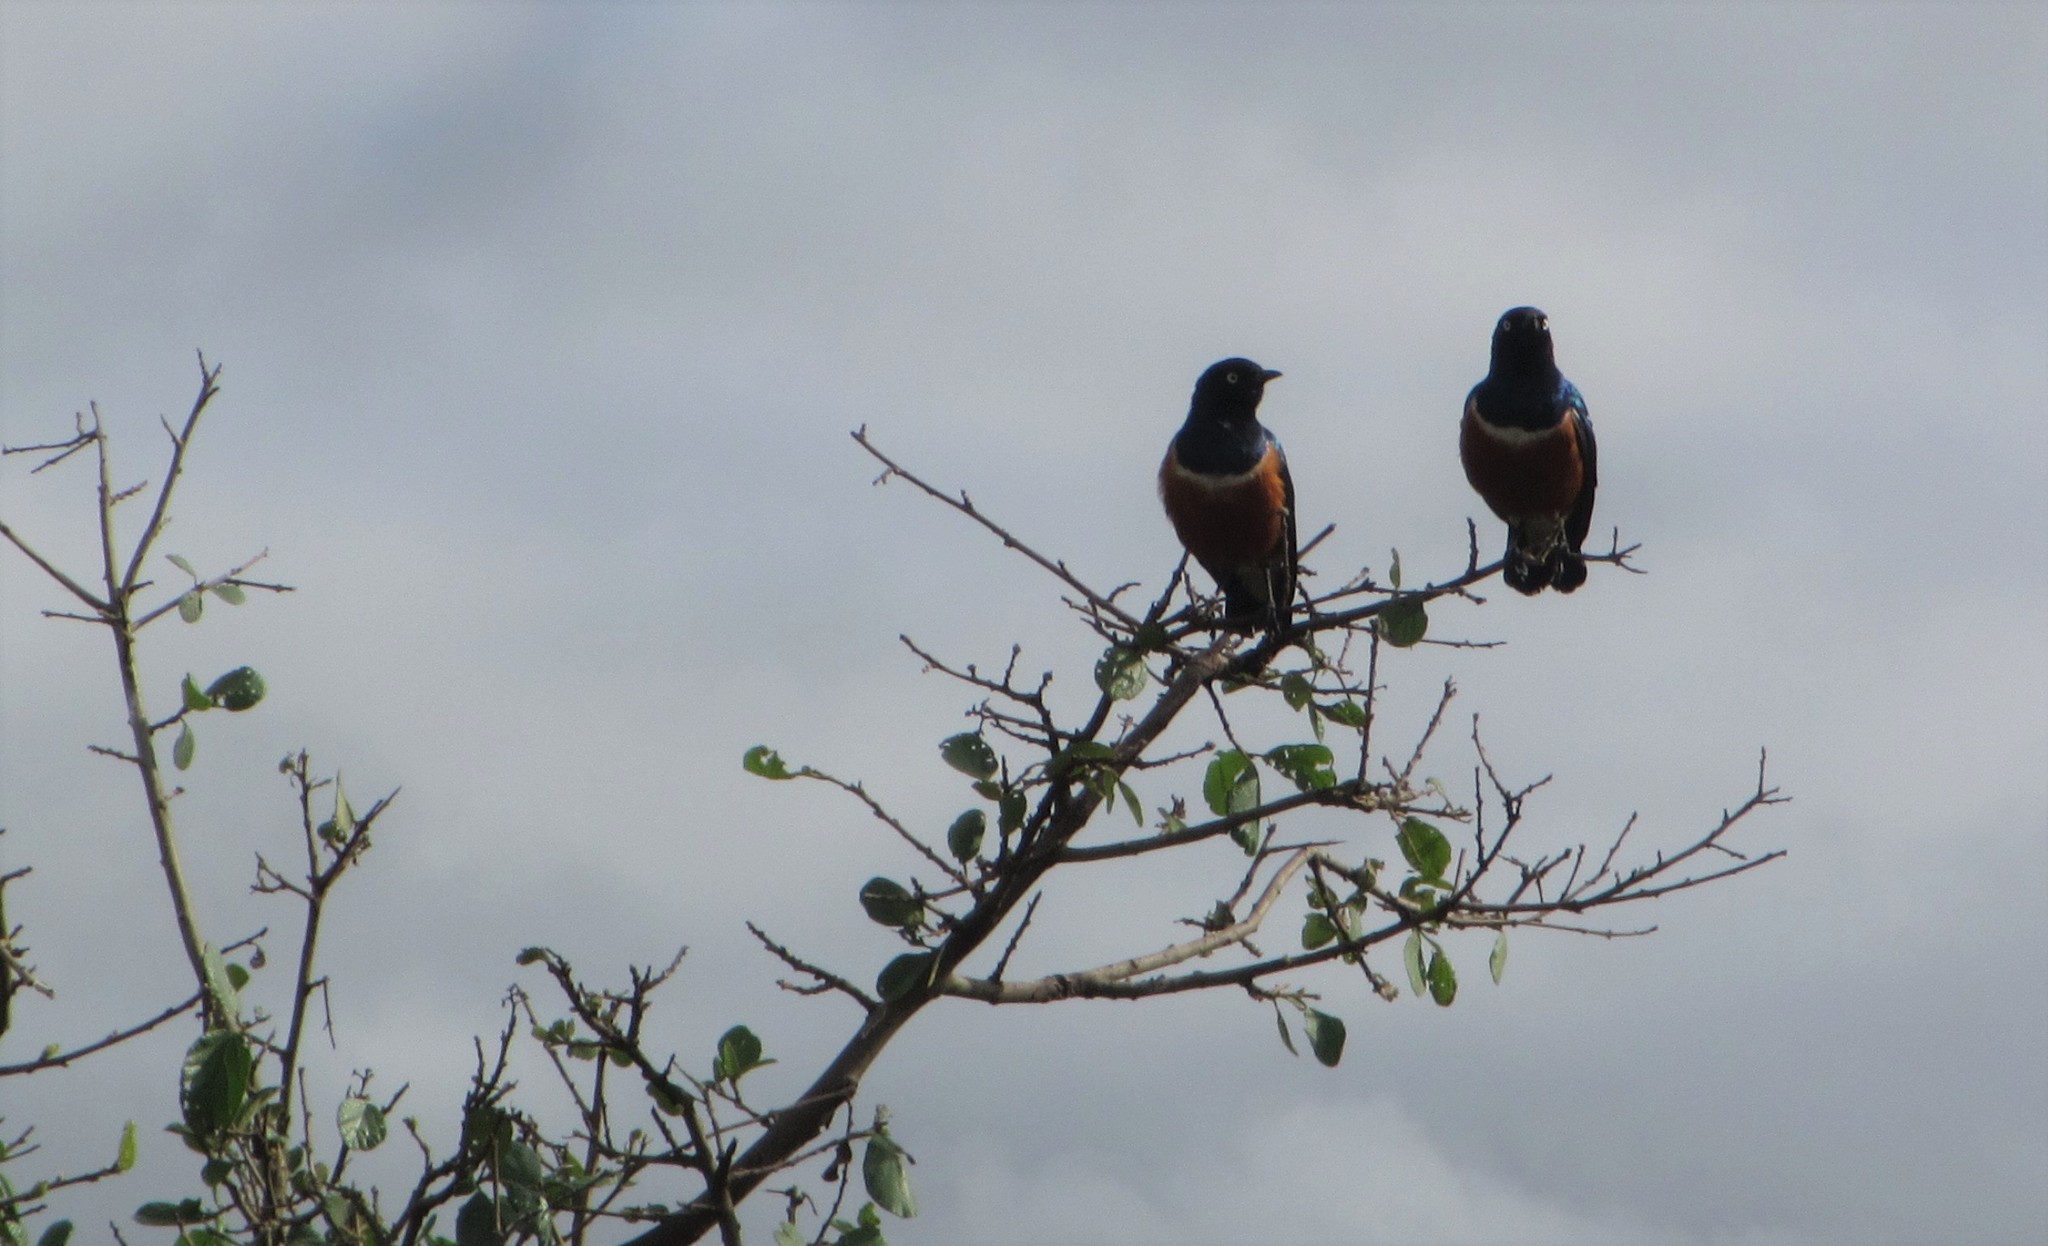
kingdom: Animalia
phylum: Chordata
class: Aves
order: Passeriformes
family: Sturnidae
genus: Lamprotornis
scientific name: Lamprotornis superbus
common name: Superb starling
